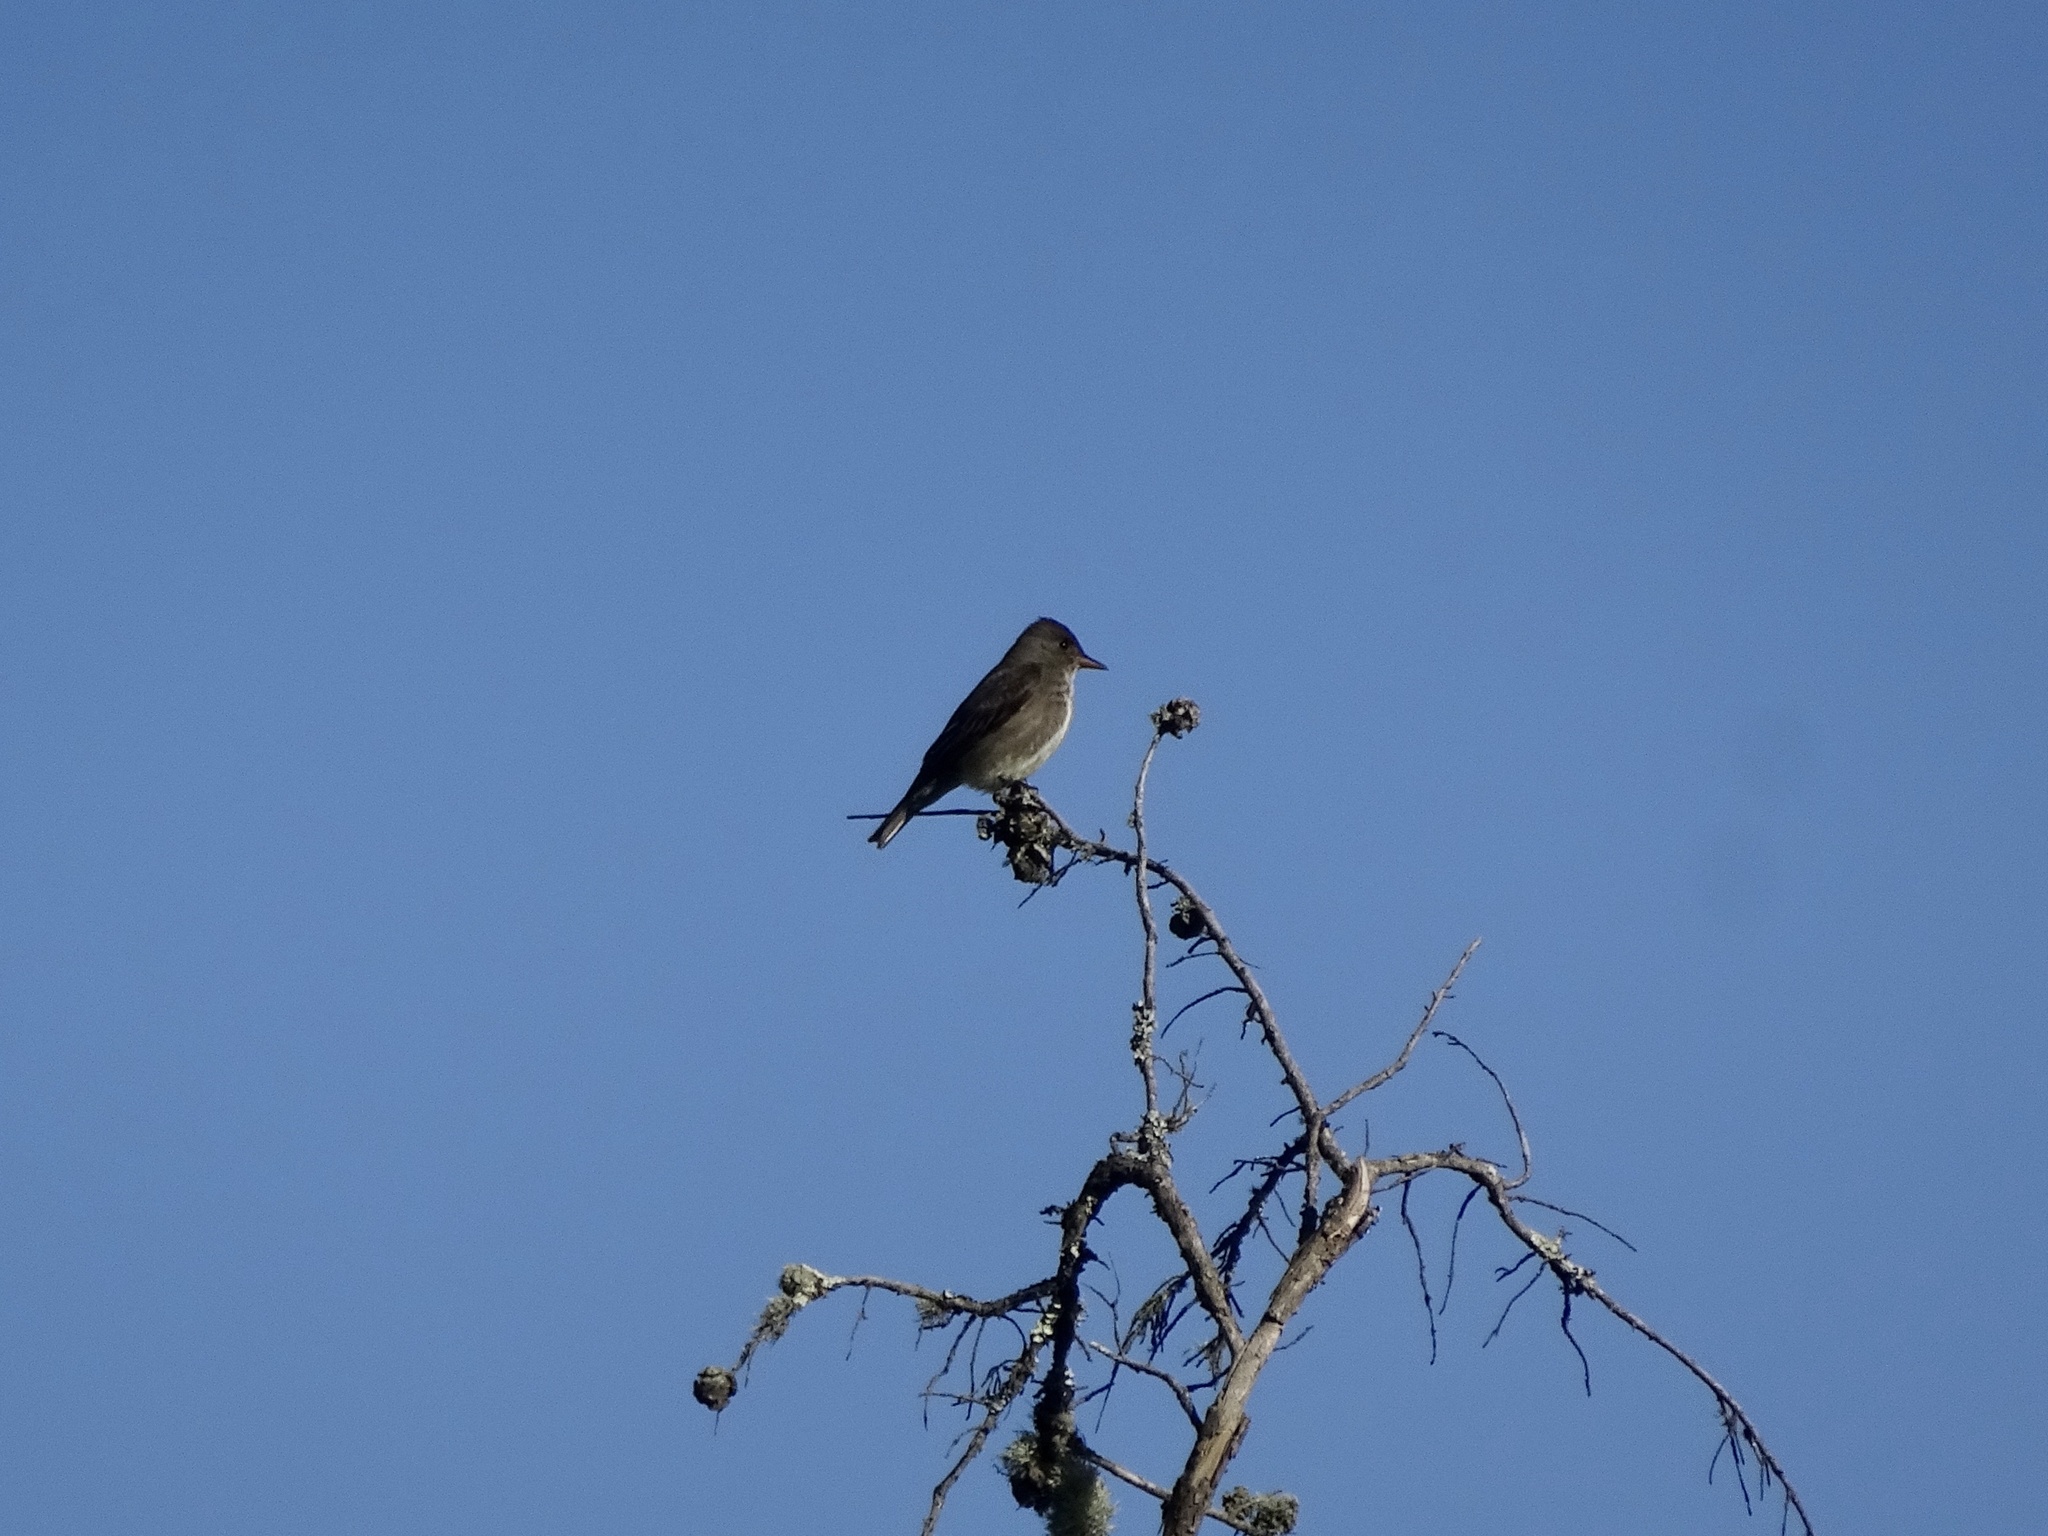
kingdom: Animalia
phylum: Chordata
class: Aves
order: Passeriformes
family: Tyrannidae
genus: Contopus
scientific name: Contopus cooperi
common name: Olive-sided flycatcher
